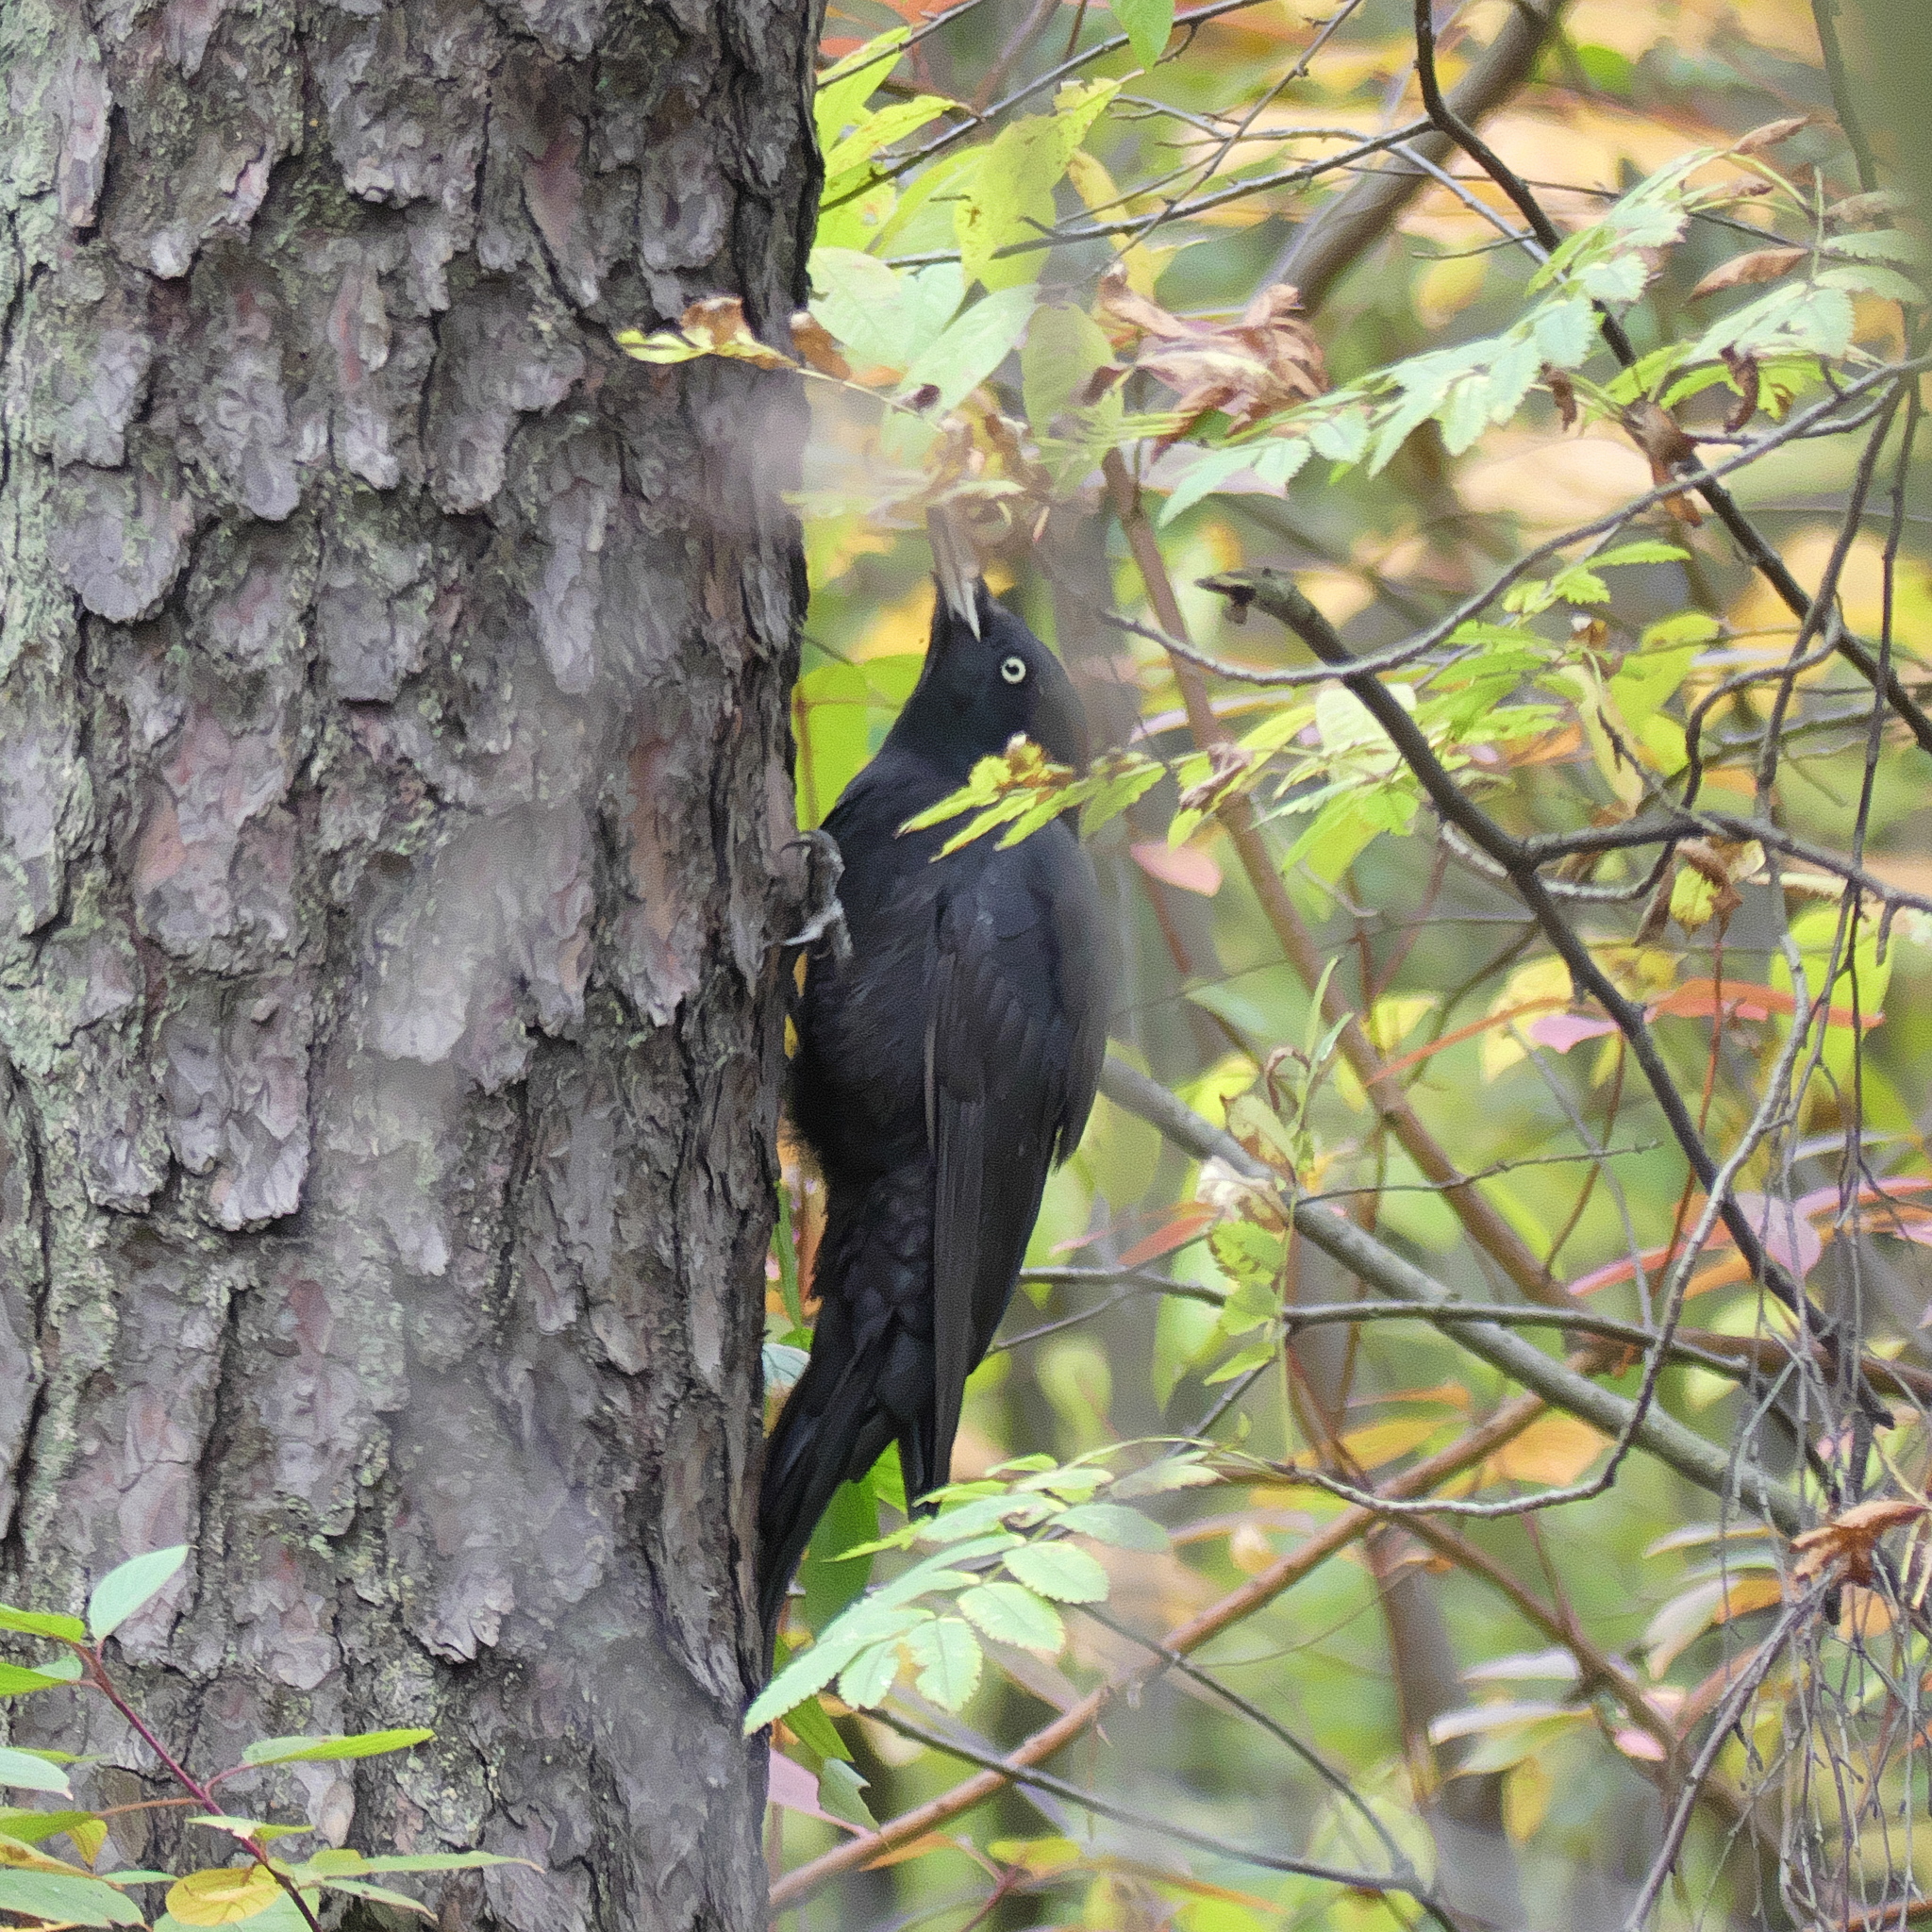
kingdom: Animalia
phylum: Chordata
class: Aves
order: Piciformes
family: Picidae
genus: Dryocopus
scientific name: Dryocopus martius
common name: Black woodpecker
